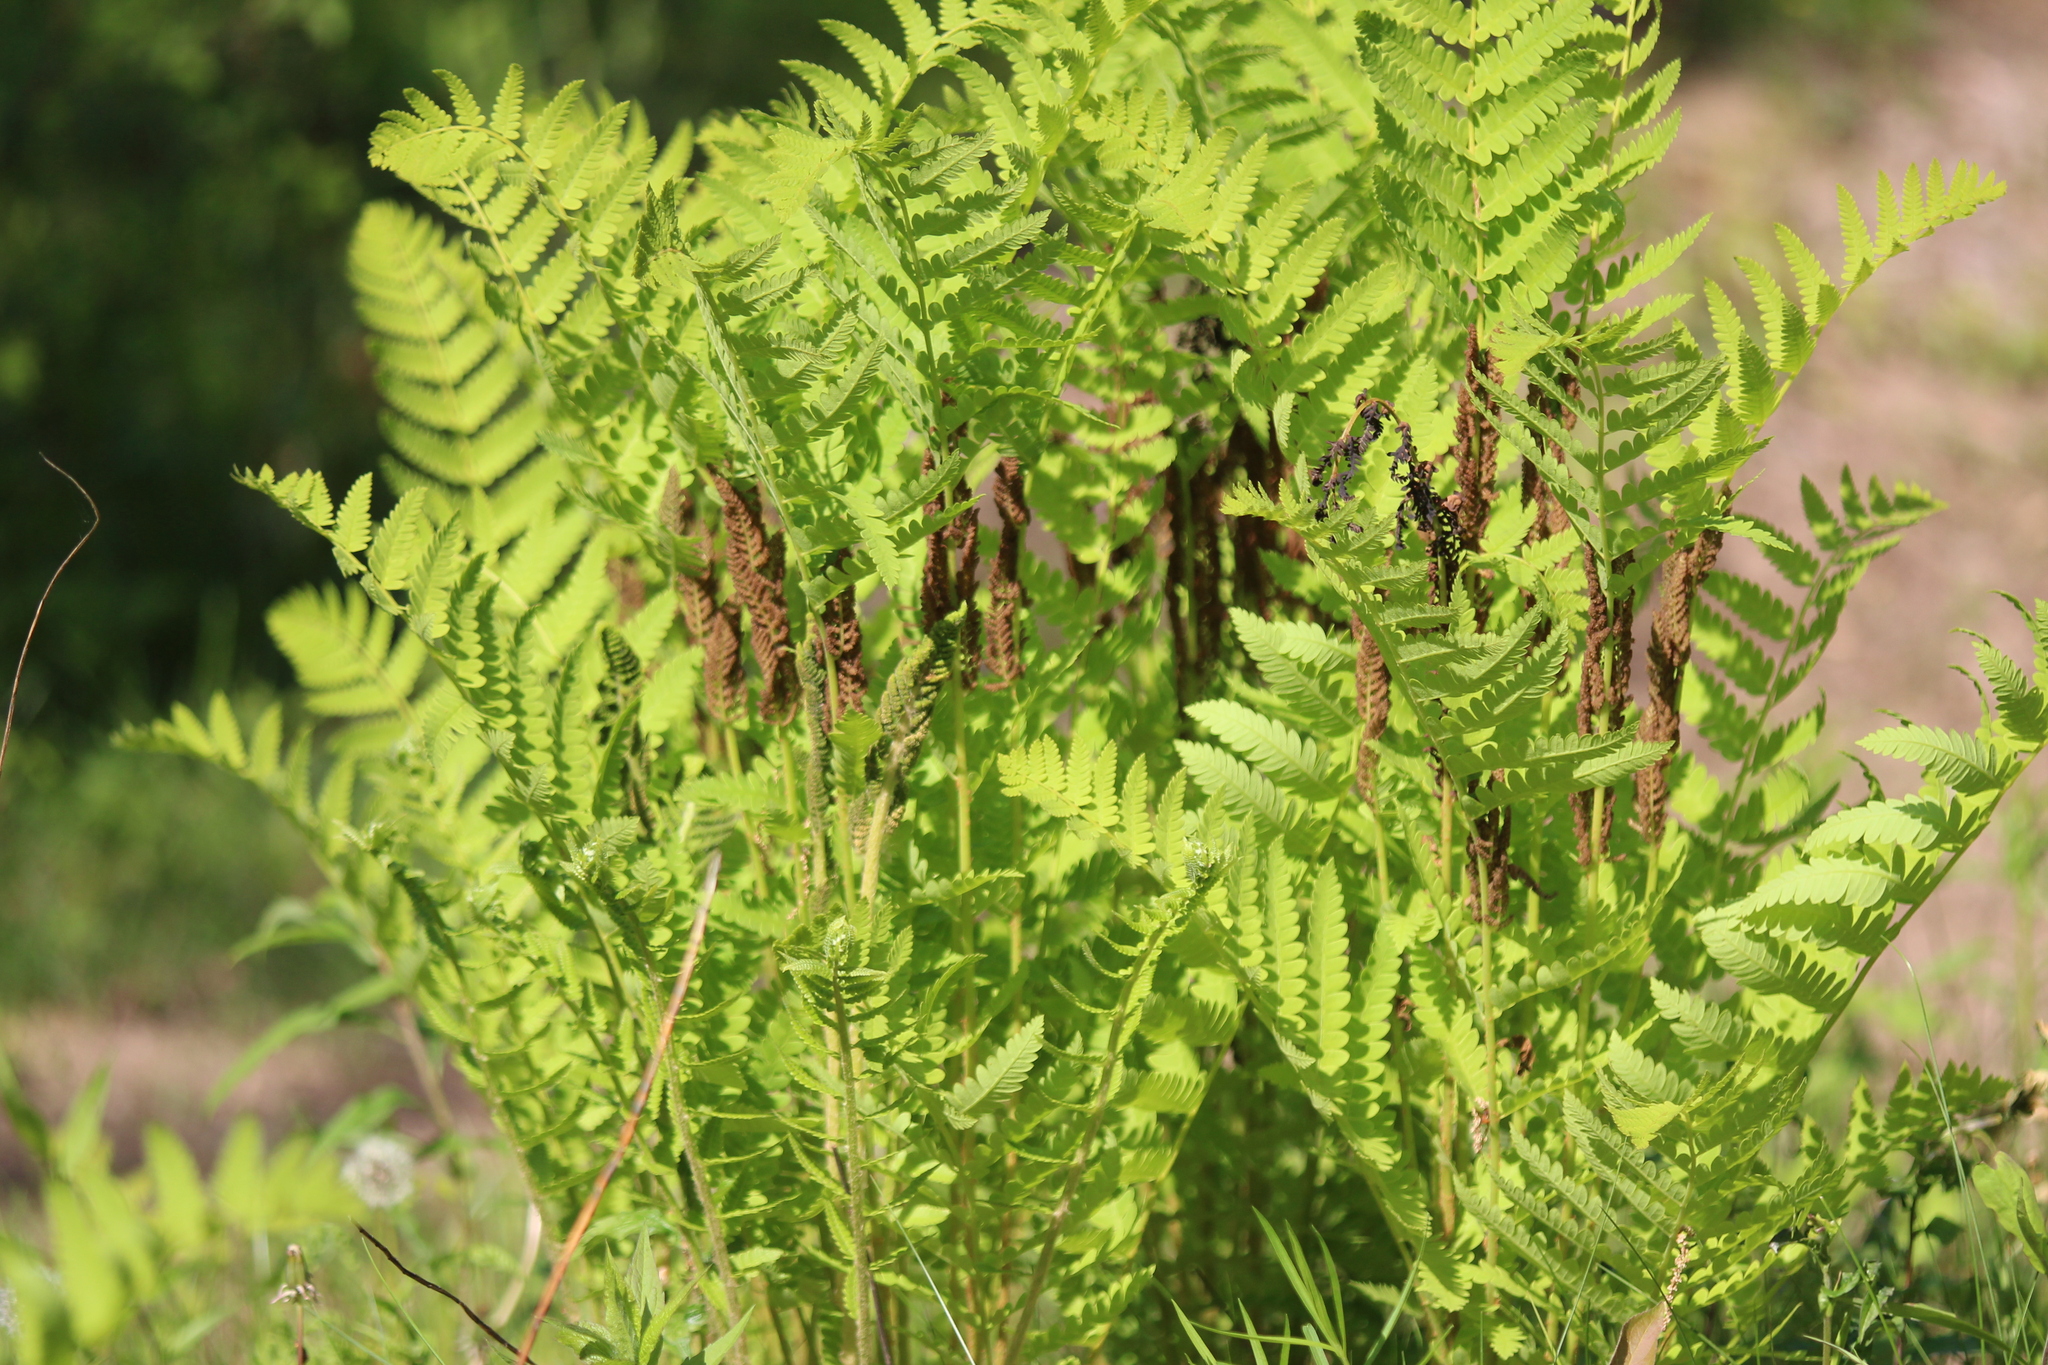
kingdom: Plantae
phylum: Tracheophyta
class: Polypodiopsida
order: Osmundales
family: Osmundaceae
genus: Claytosmunda
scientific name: Claytosmunda claytoniana
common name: Clayton's fern
